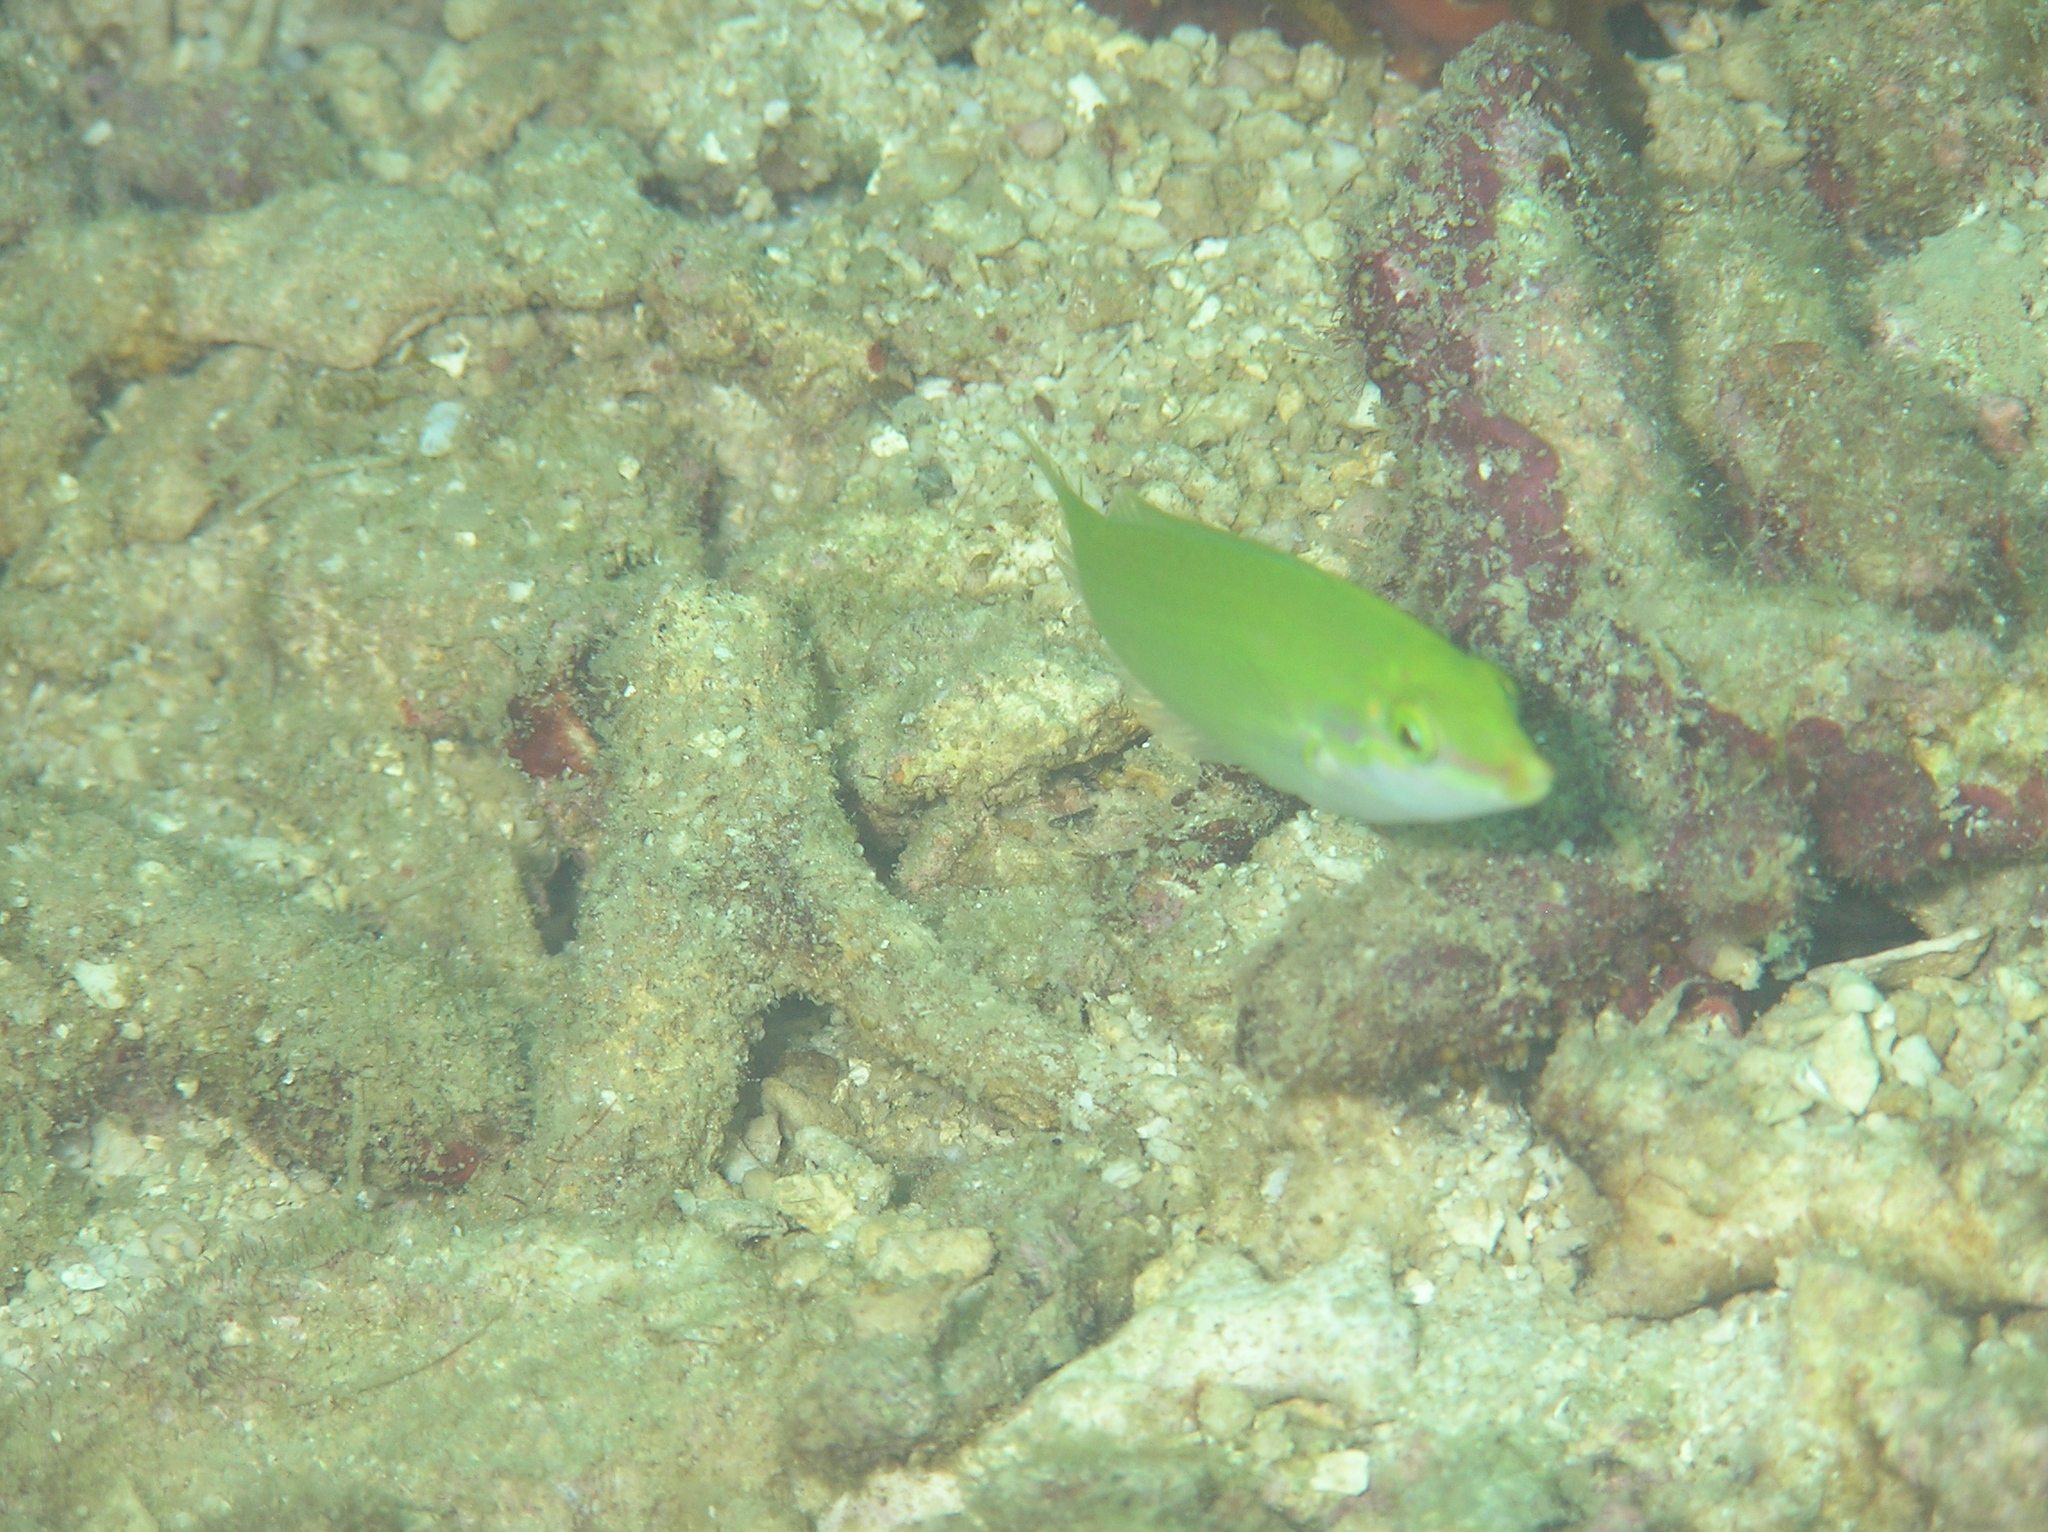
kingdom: Animalia
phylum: Chordata
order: Perciformes
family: Labridae
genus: Halichoeres
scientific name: Halichoeres chloropterus
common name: Pastel-green wrasse
